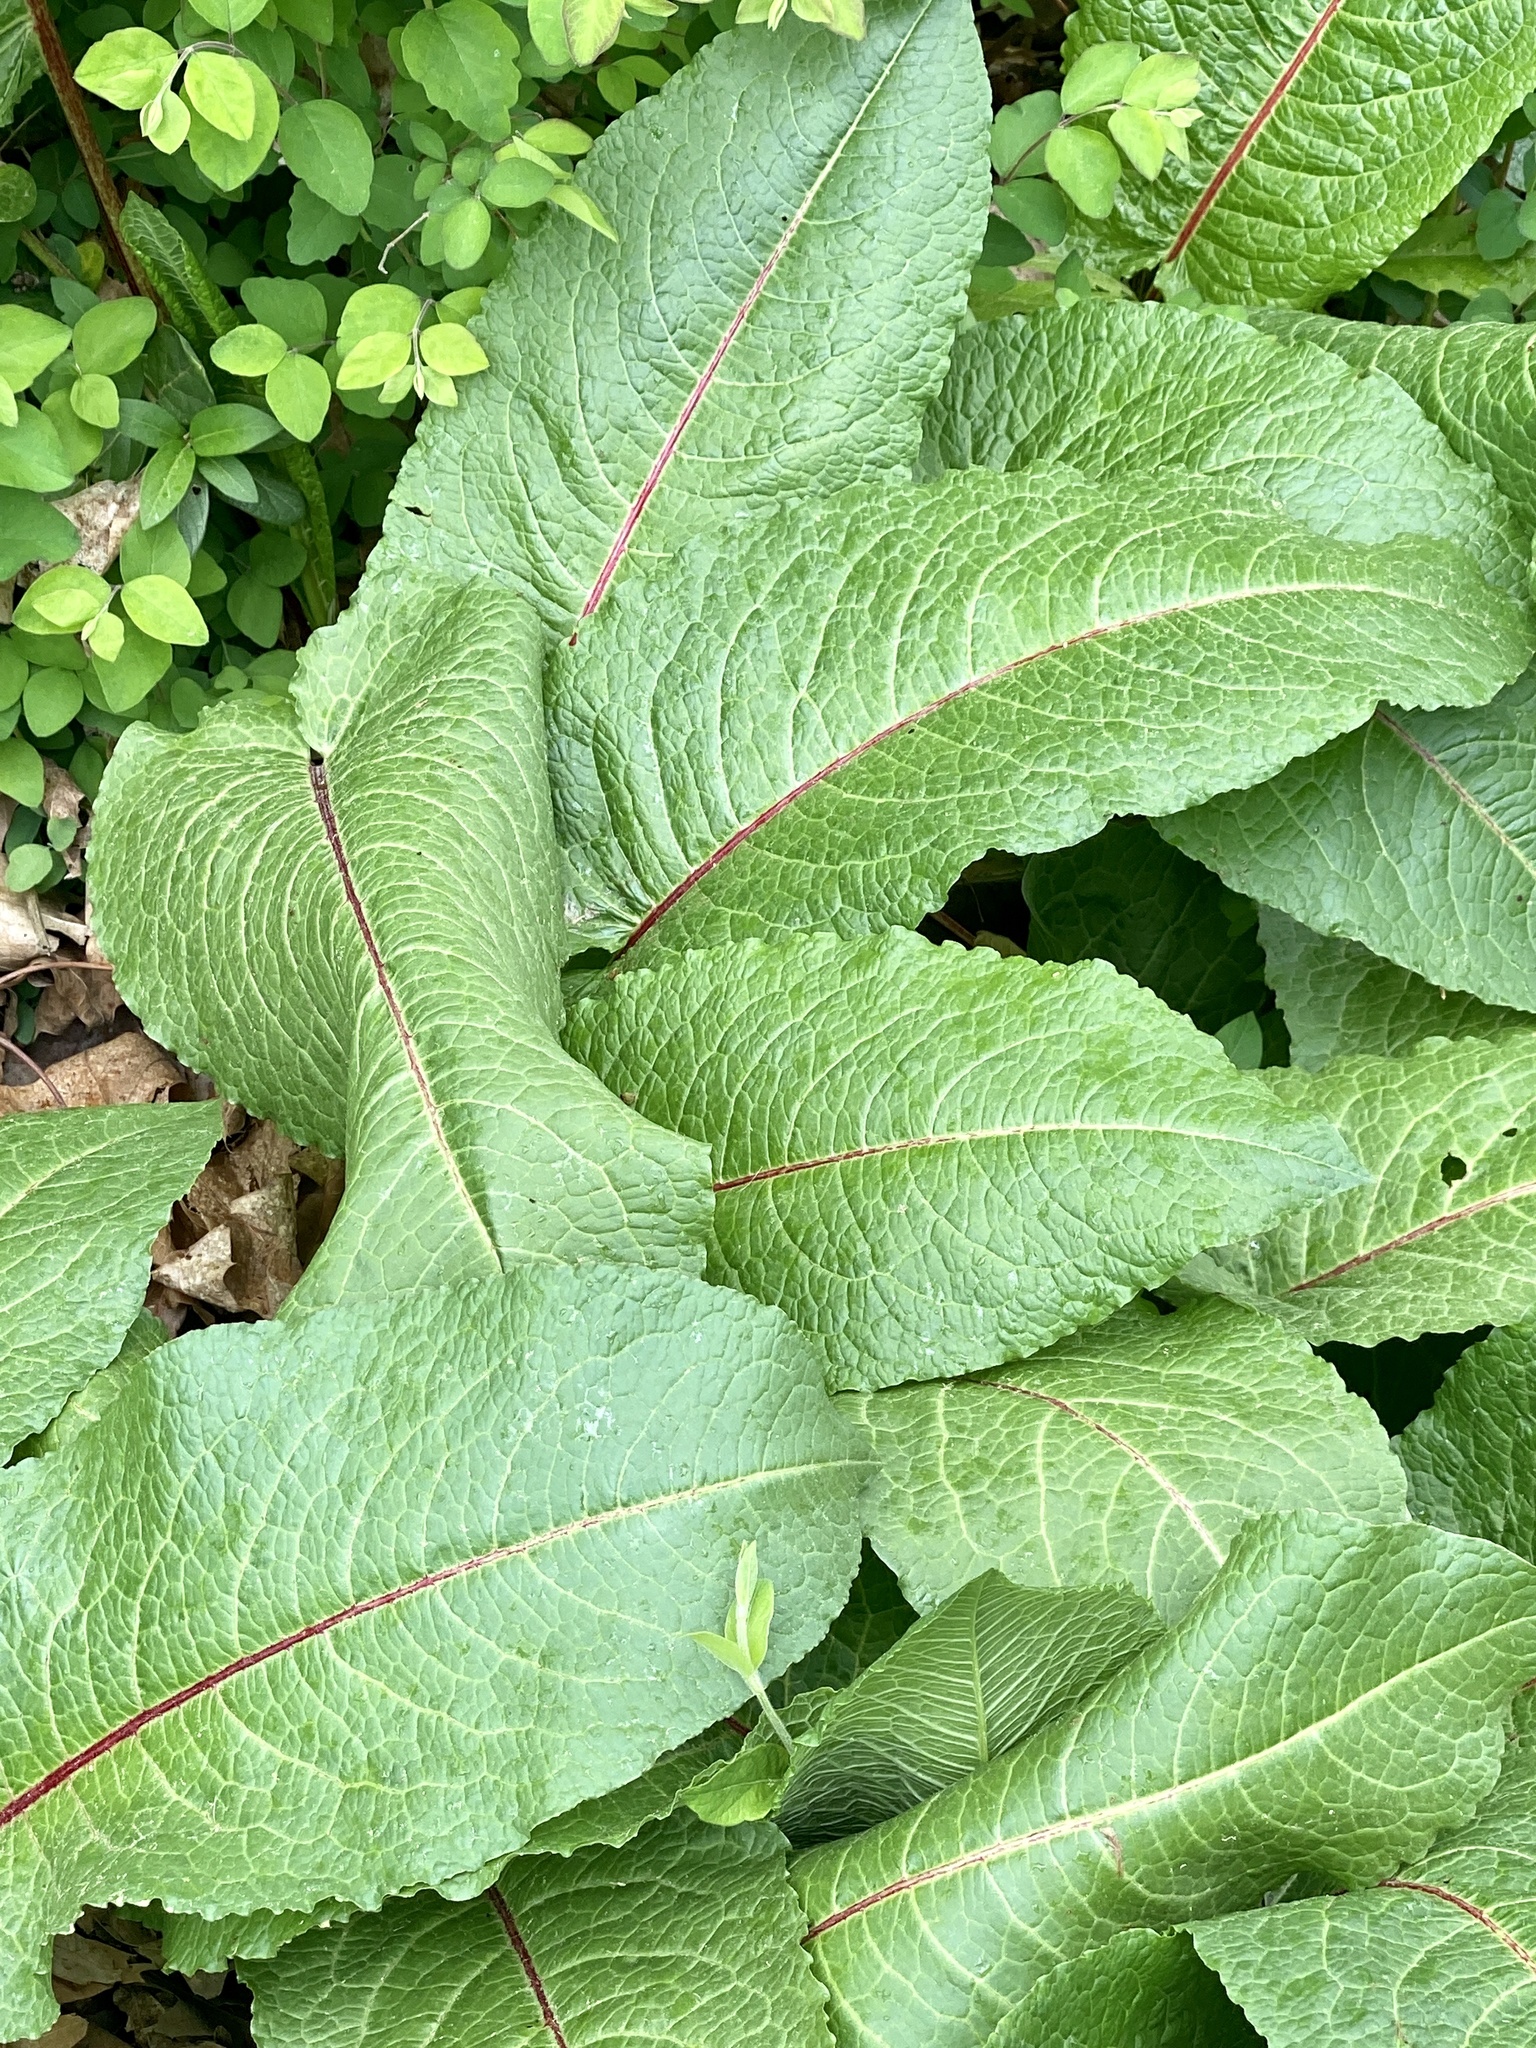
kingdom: Plantae
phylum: Tracheophyta
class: Magnoliopsida
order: Caryophyllales
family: Polygonaceae
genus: Rumex
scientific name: Rumex obtusifolius
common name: Bitter dock
